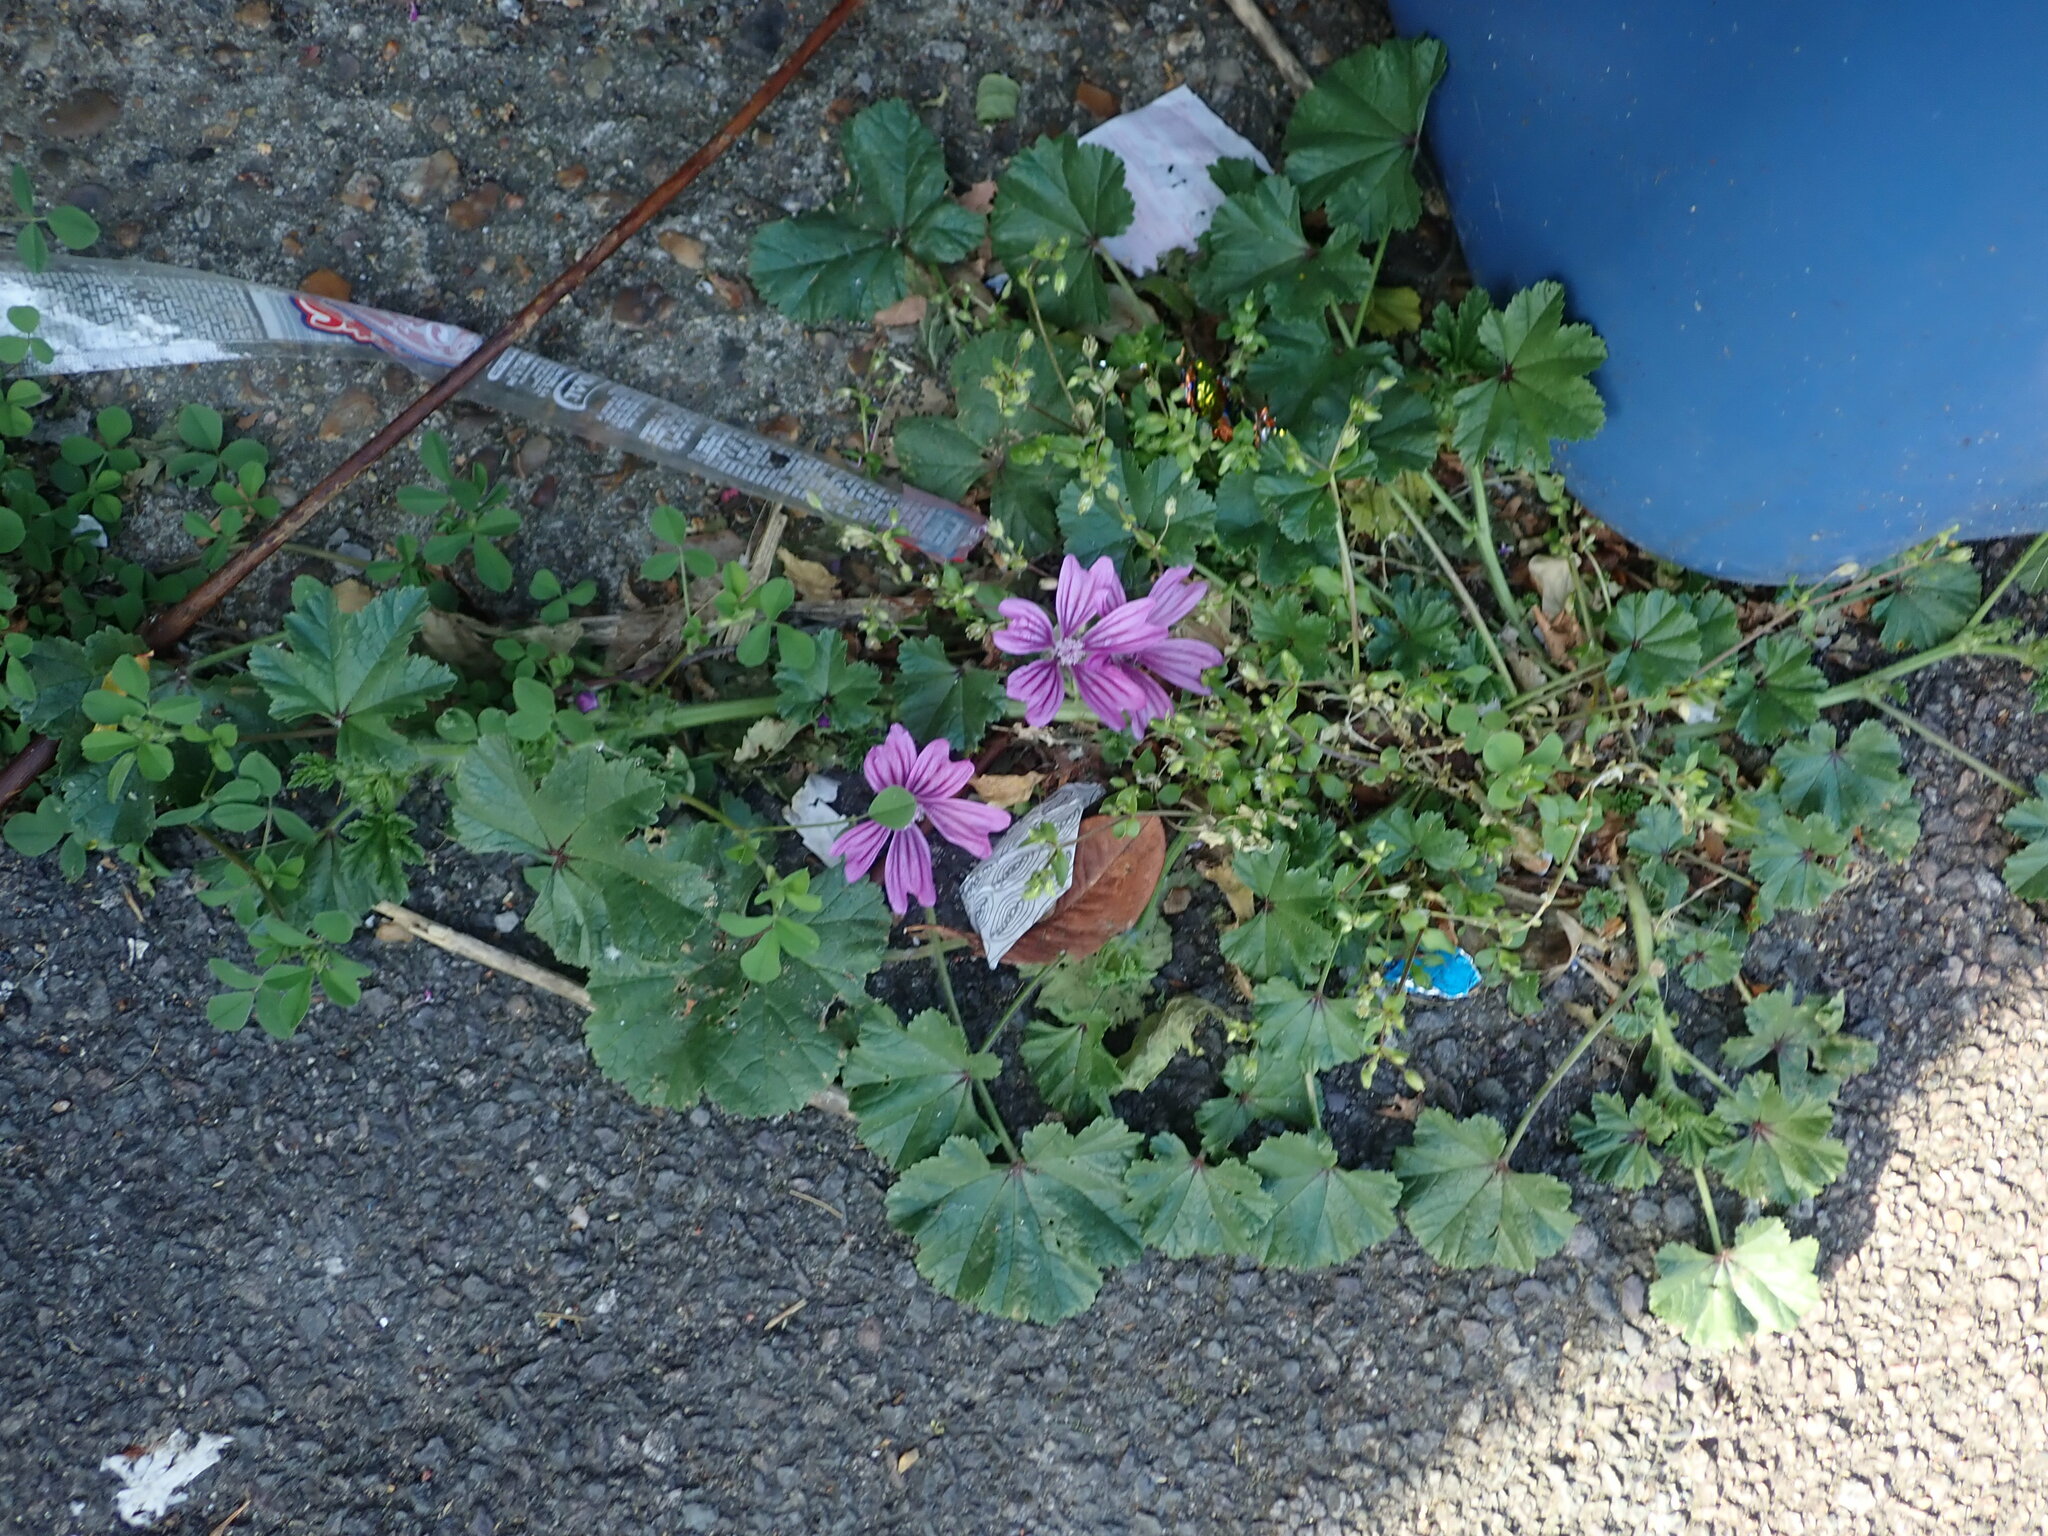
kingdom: Plantae
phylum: Tracheophyta
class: Magnoliopsida
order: Malvales
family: Malvaceae
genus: Malva
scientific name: Malva sylvestris
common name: Common mallow
